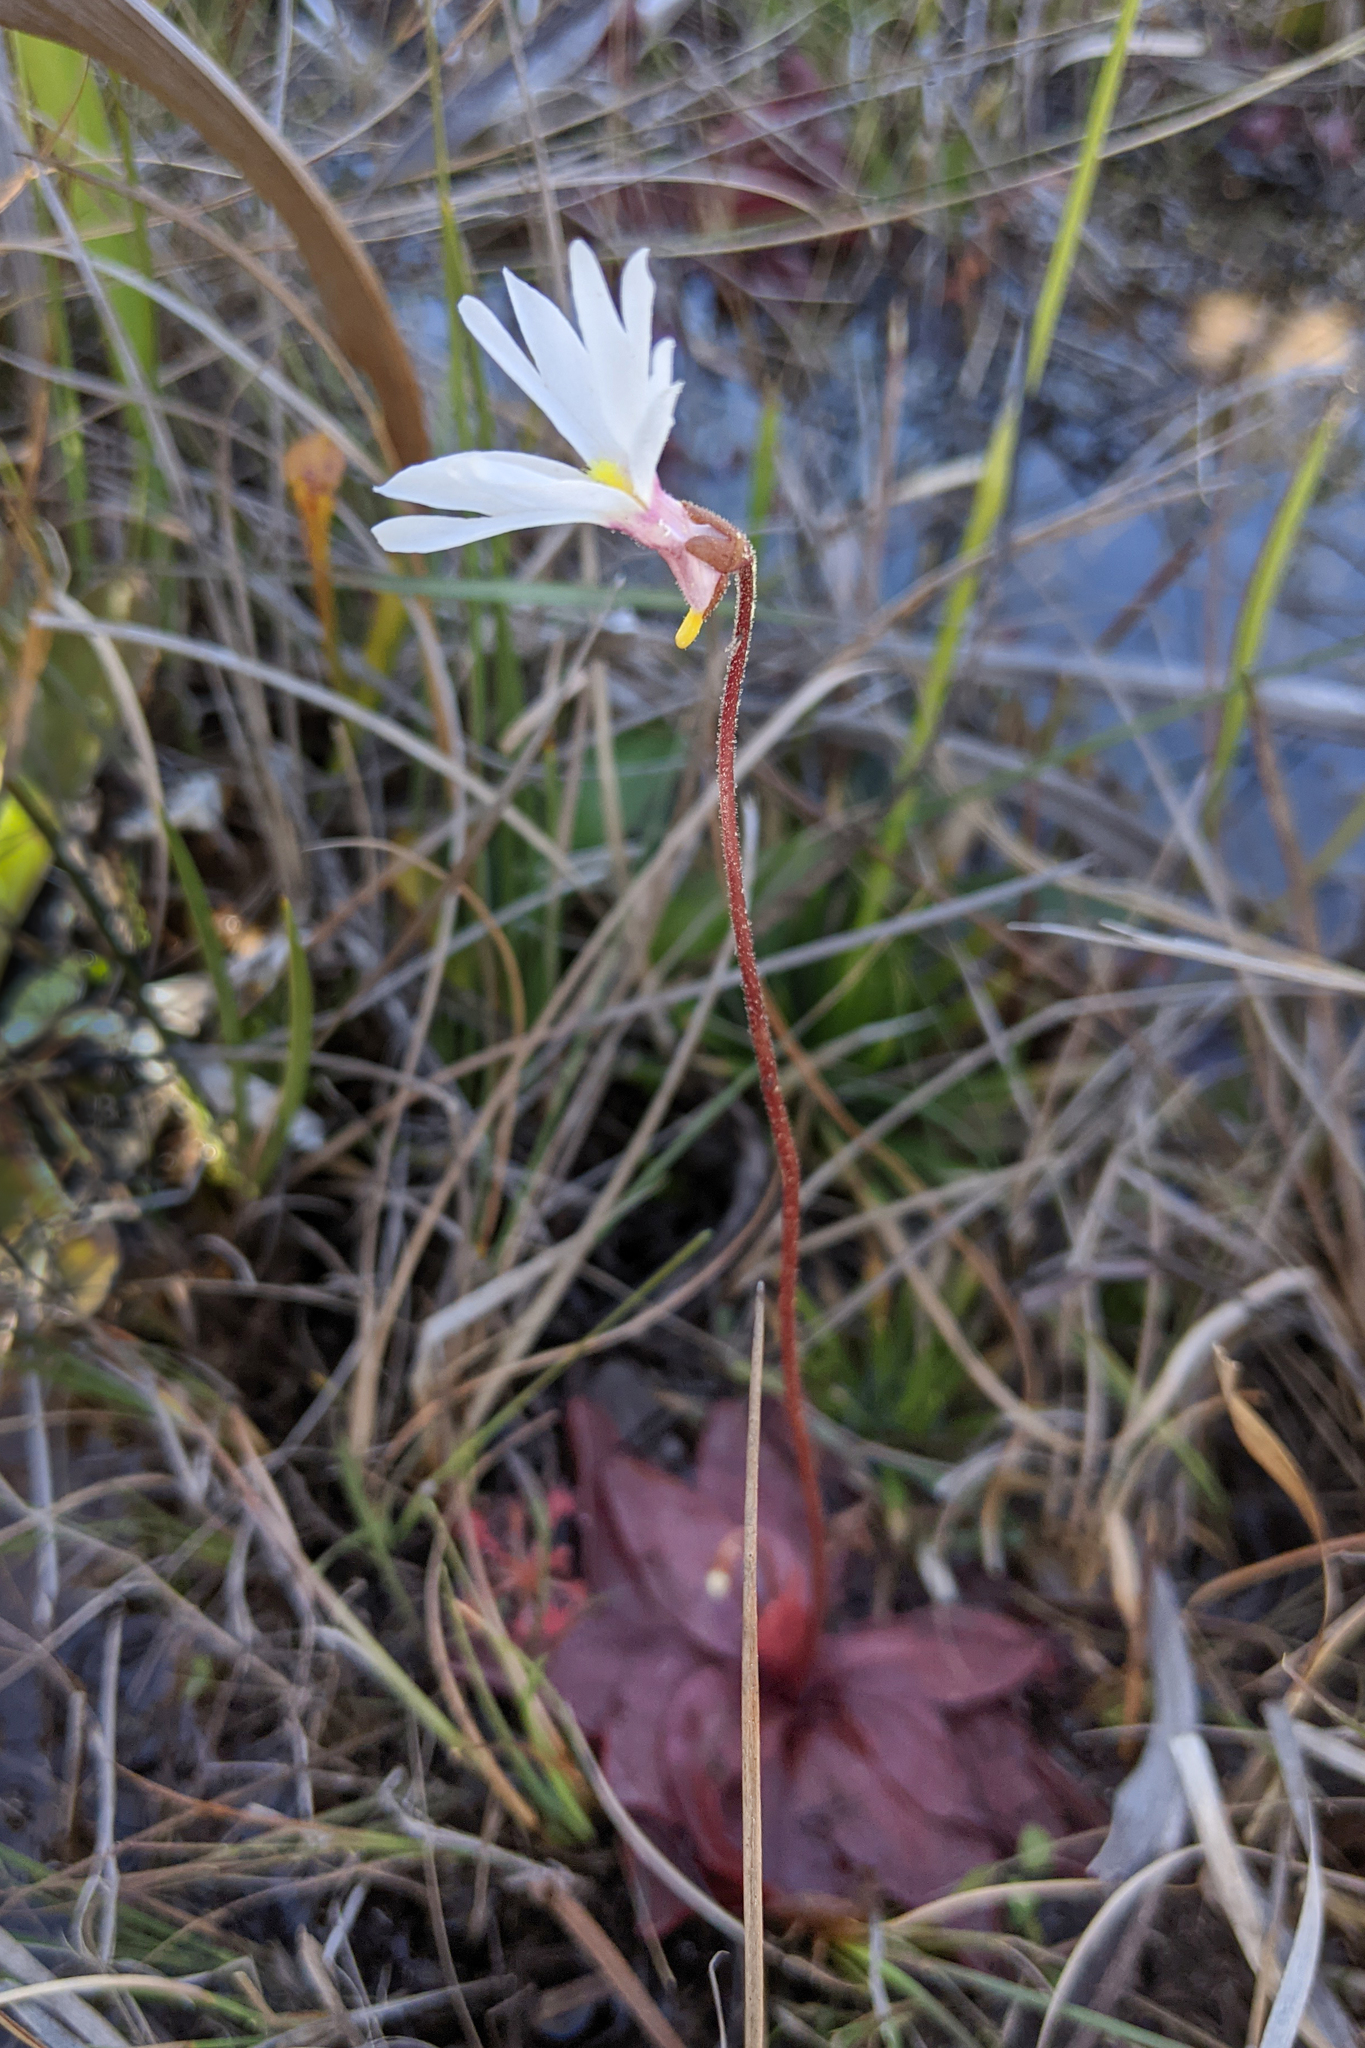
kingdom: Plantae
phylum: Tracheophyta
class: Magnoliopsida
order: Lamiales
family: Lentibulariaceae
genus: Pinguicula
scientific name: Pinguicula planifolia
